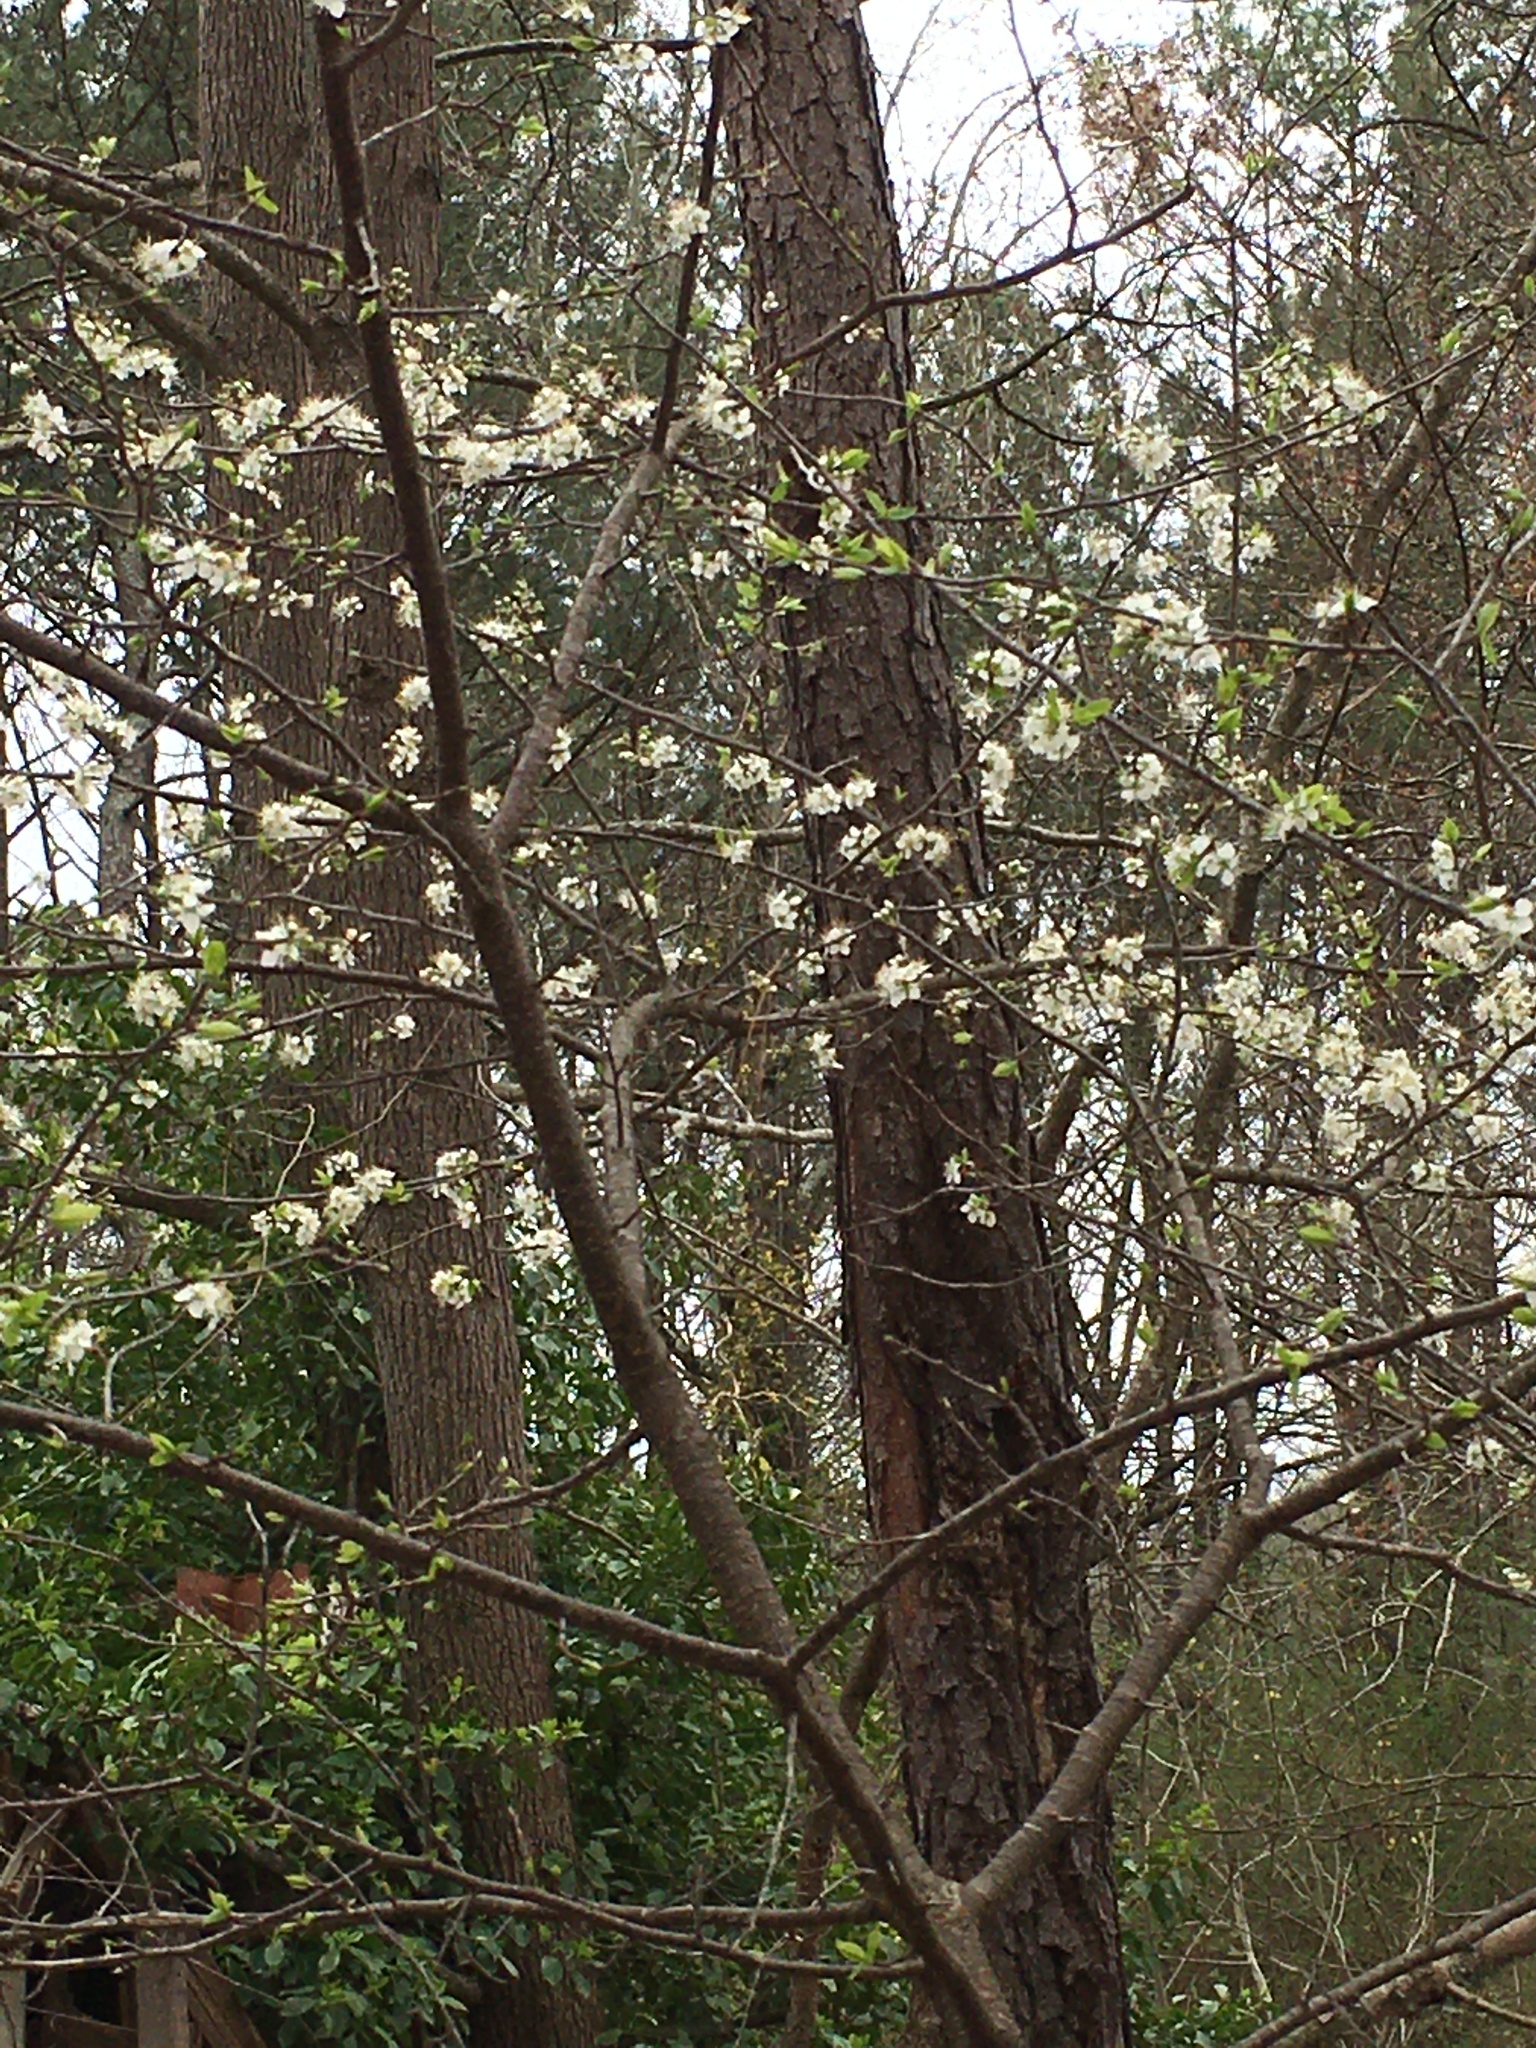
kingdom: Plantae
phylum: Tracheophyta
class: Magnoliopsida
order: Rosales
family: Rosaceae
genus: Prunus
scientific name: Prunus angustifolia
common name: Cherokee plum
